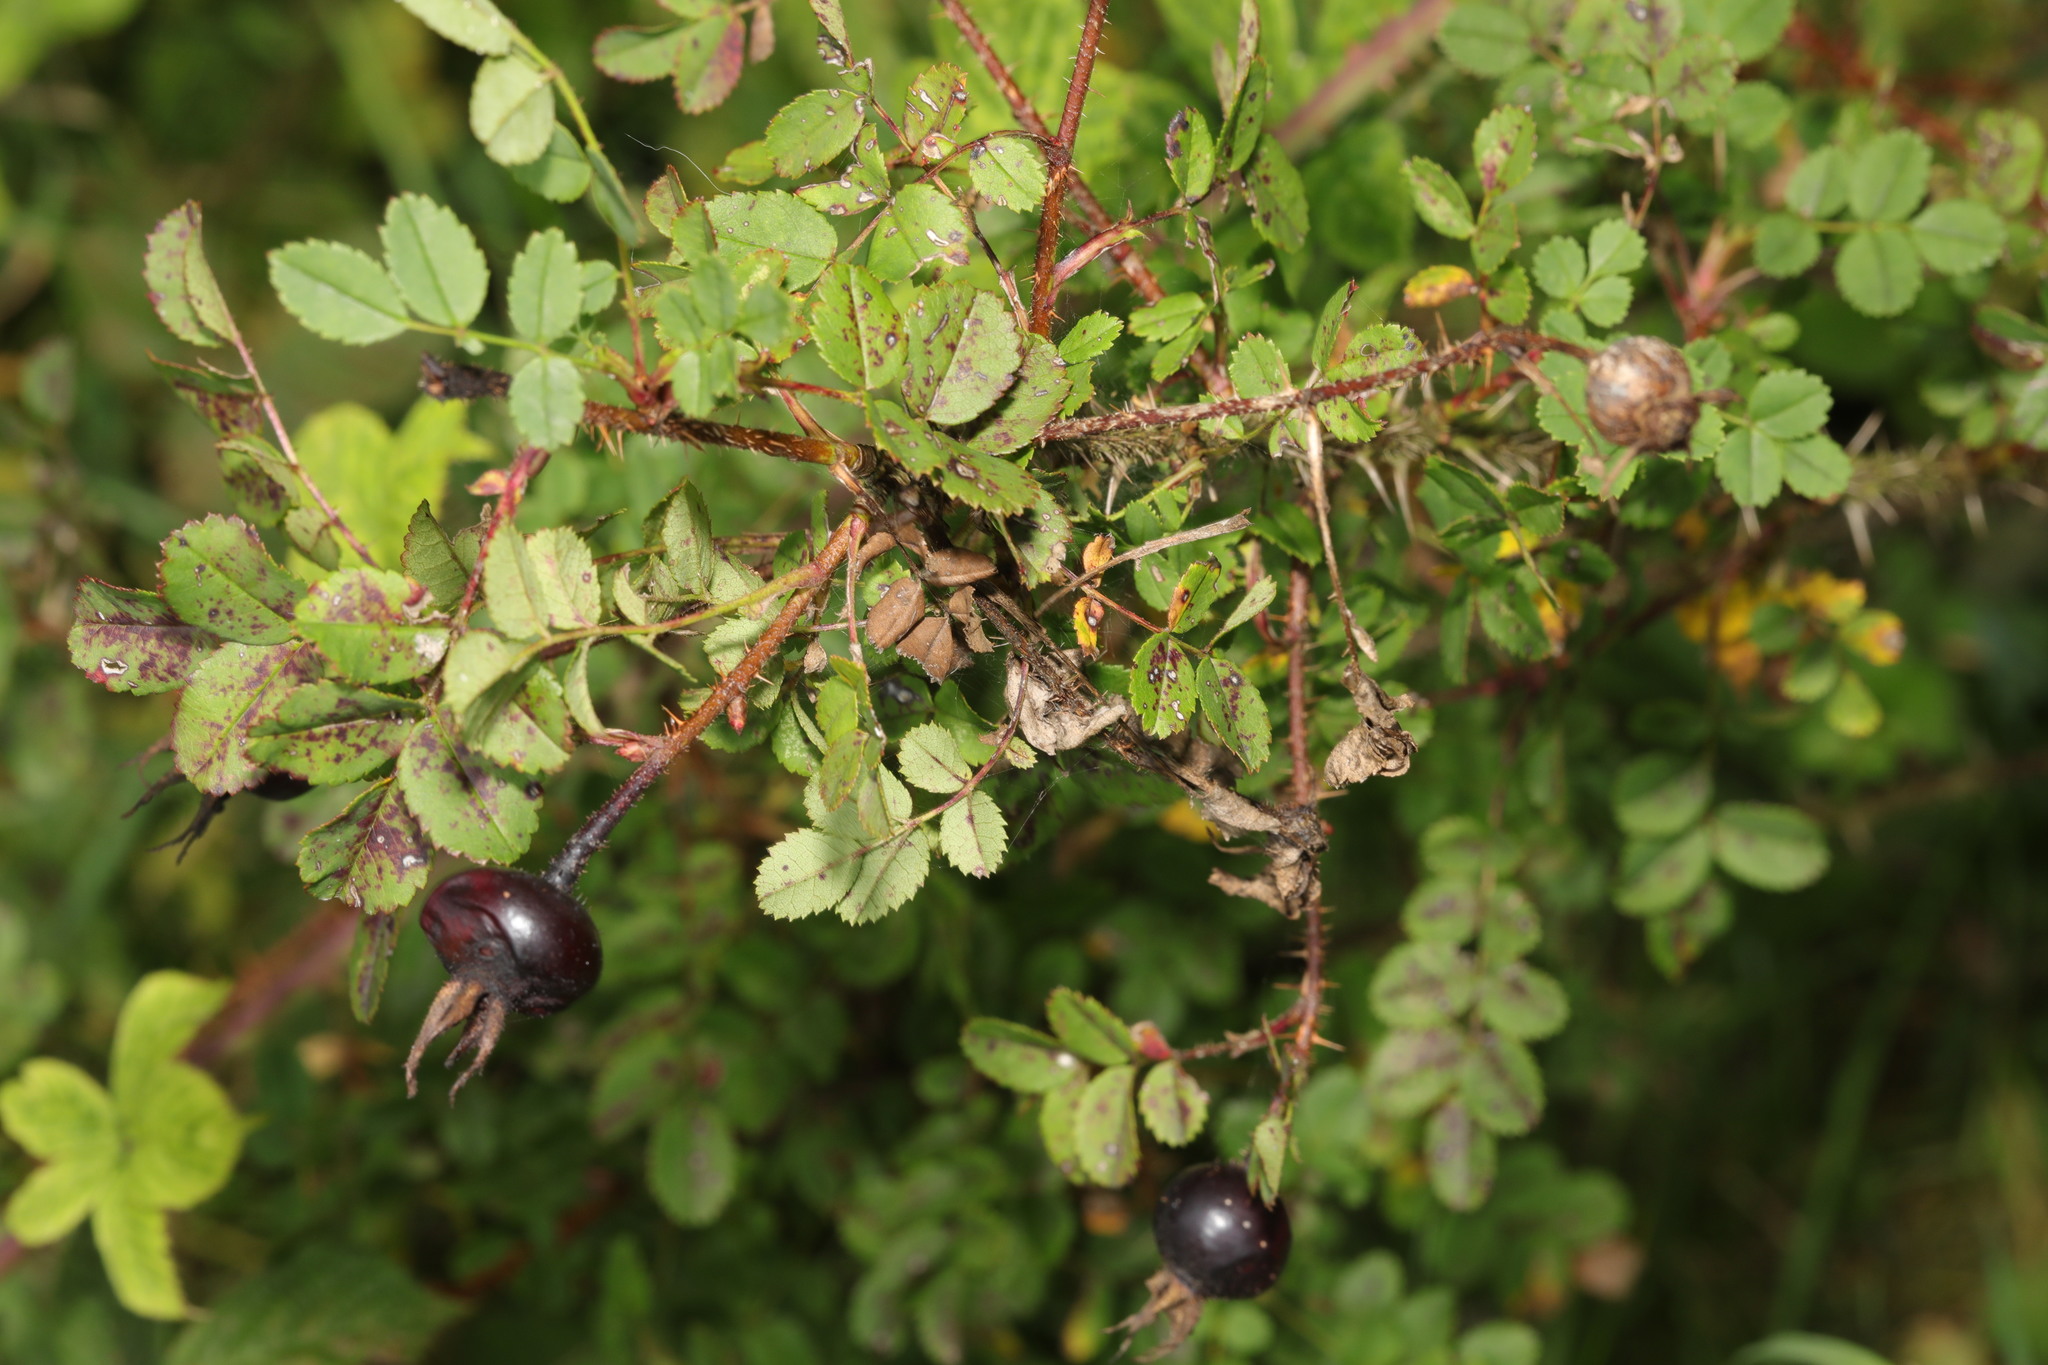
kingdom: Plantae
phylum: Tracheophyta
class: Magnoliopsida
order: Rosales
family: Rosaceae
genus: Rosa
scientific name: Rosa spinosissima
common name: Burnet rose
